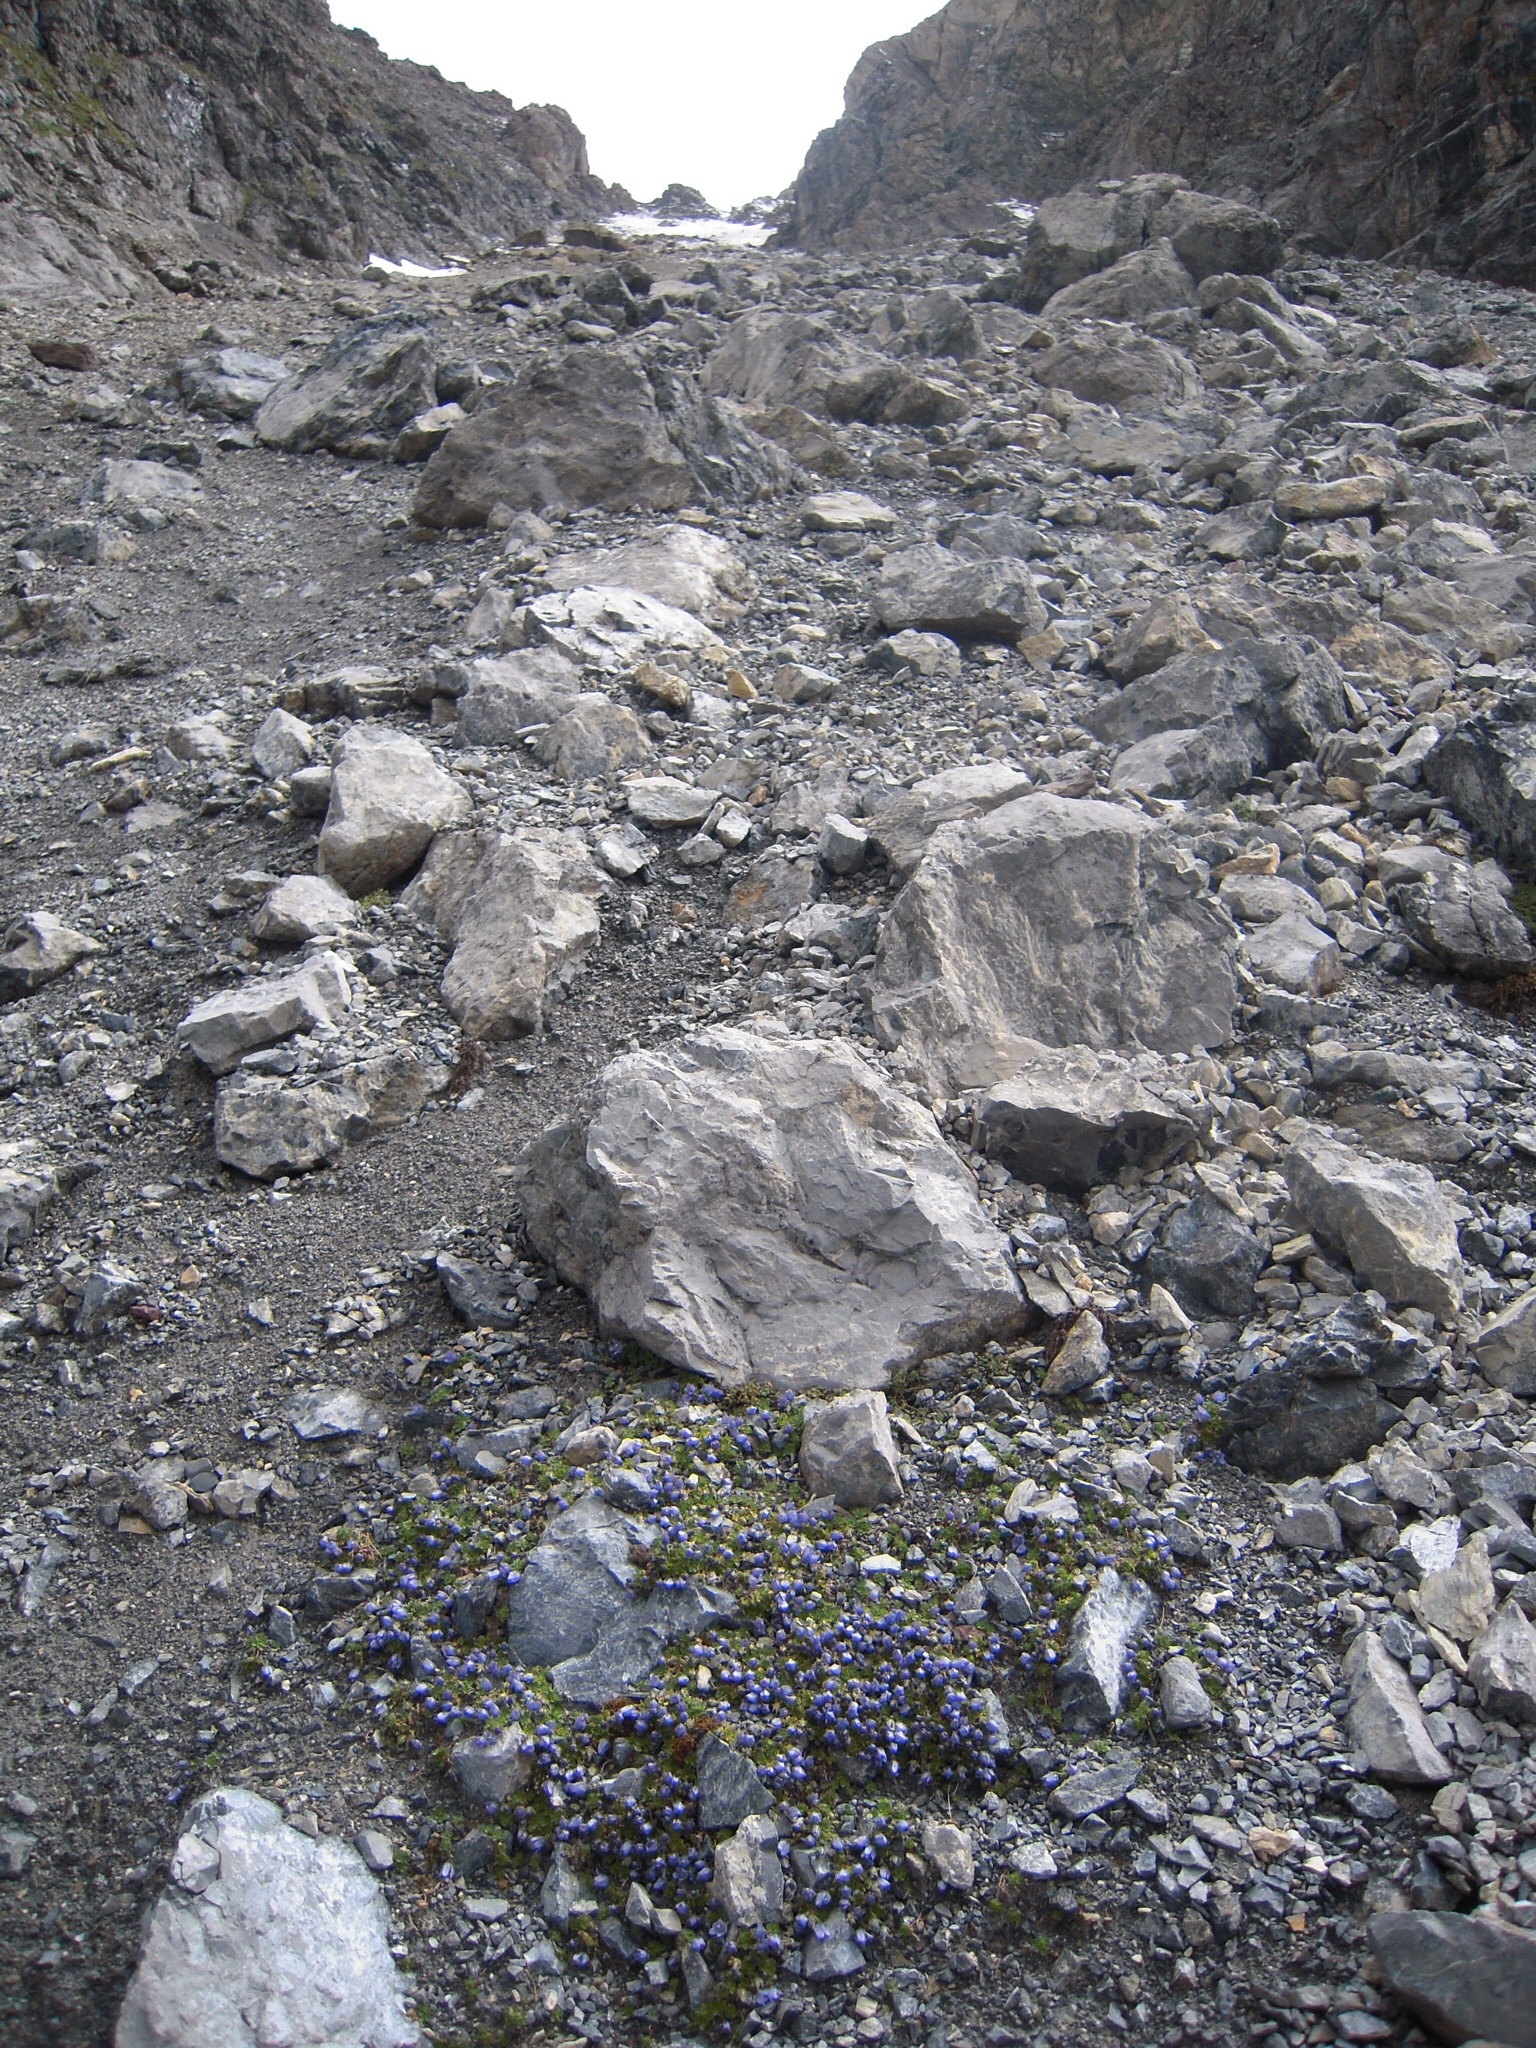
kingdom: Plantae
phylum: Tracheophyta
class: Magnoliopsida
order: Asterales
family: Campanulaceae
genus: Campanula
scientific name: Campanula cenisia
